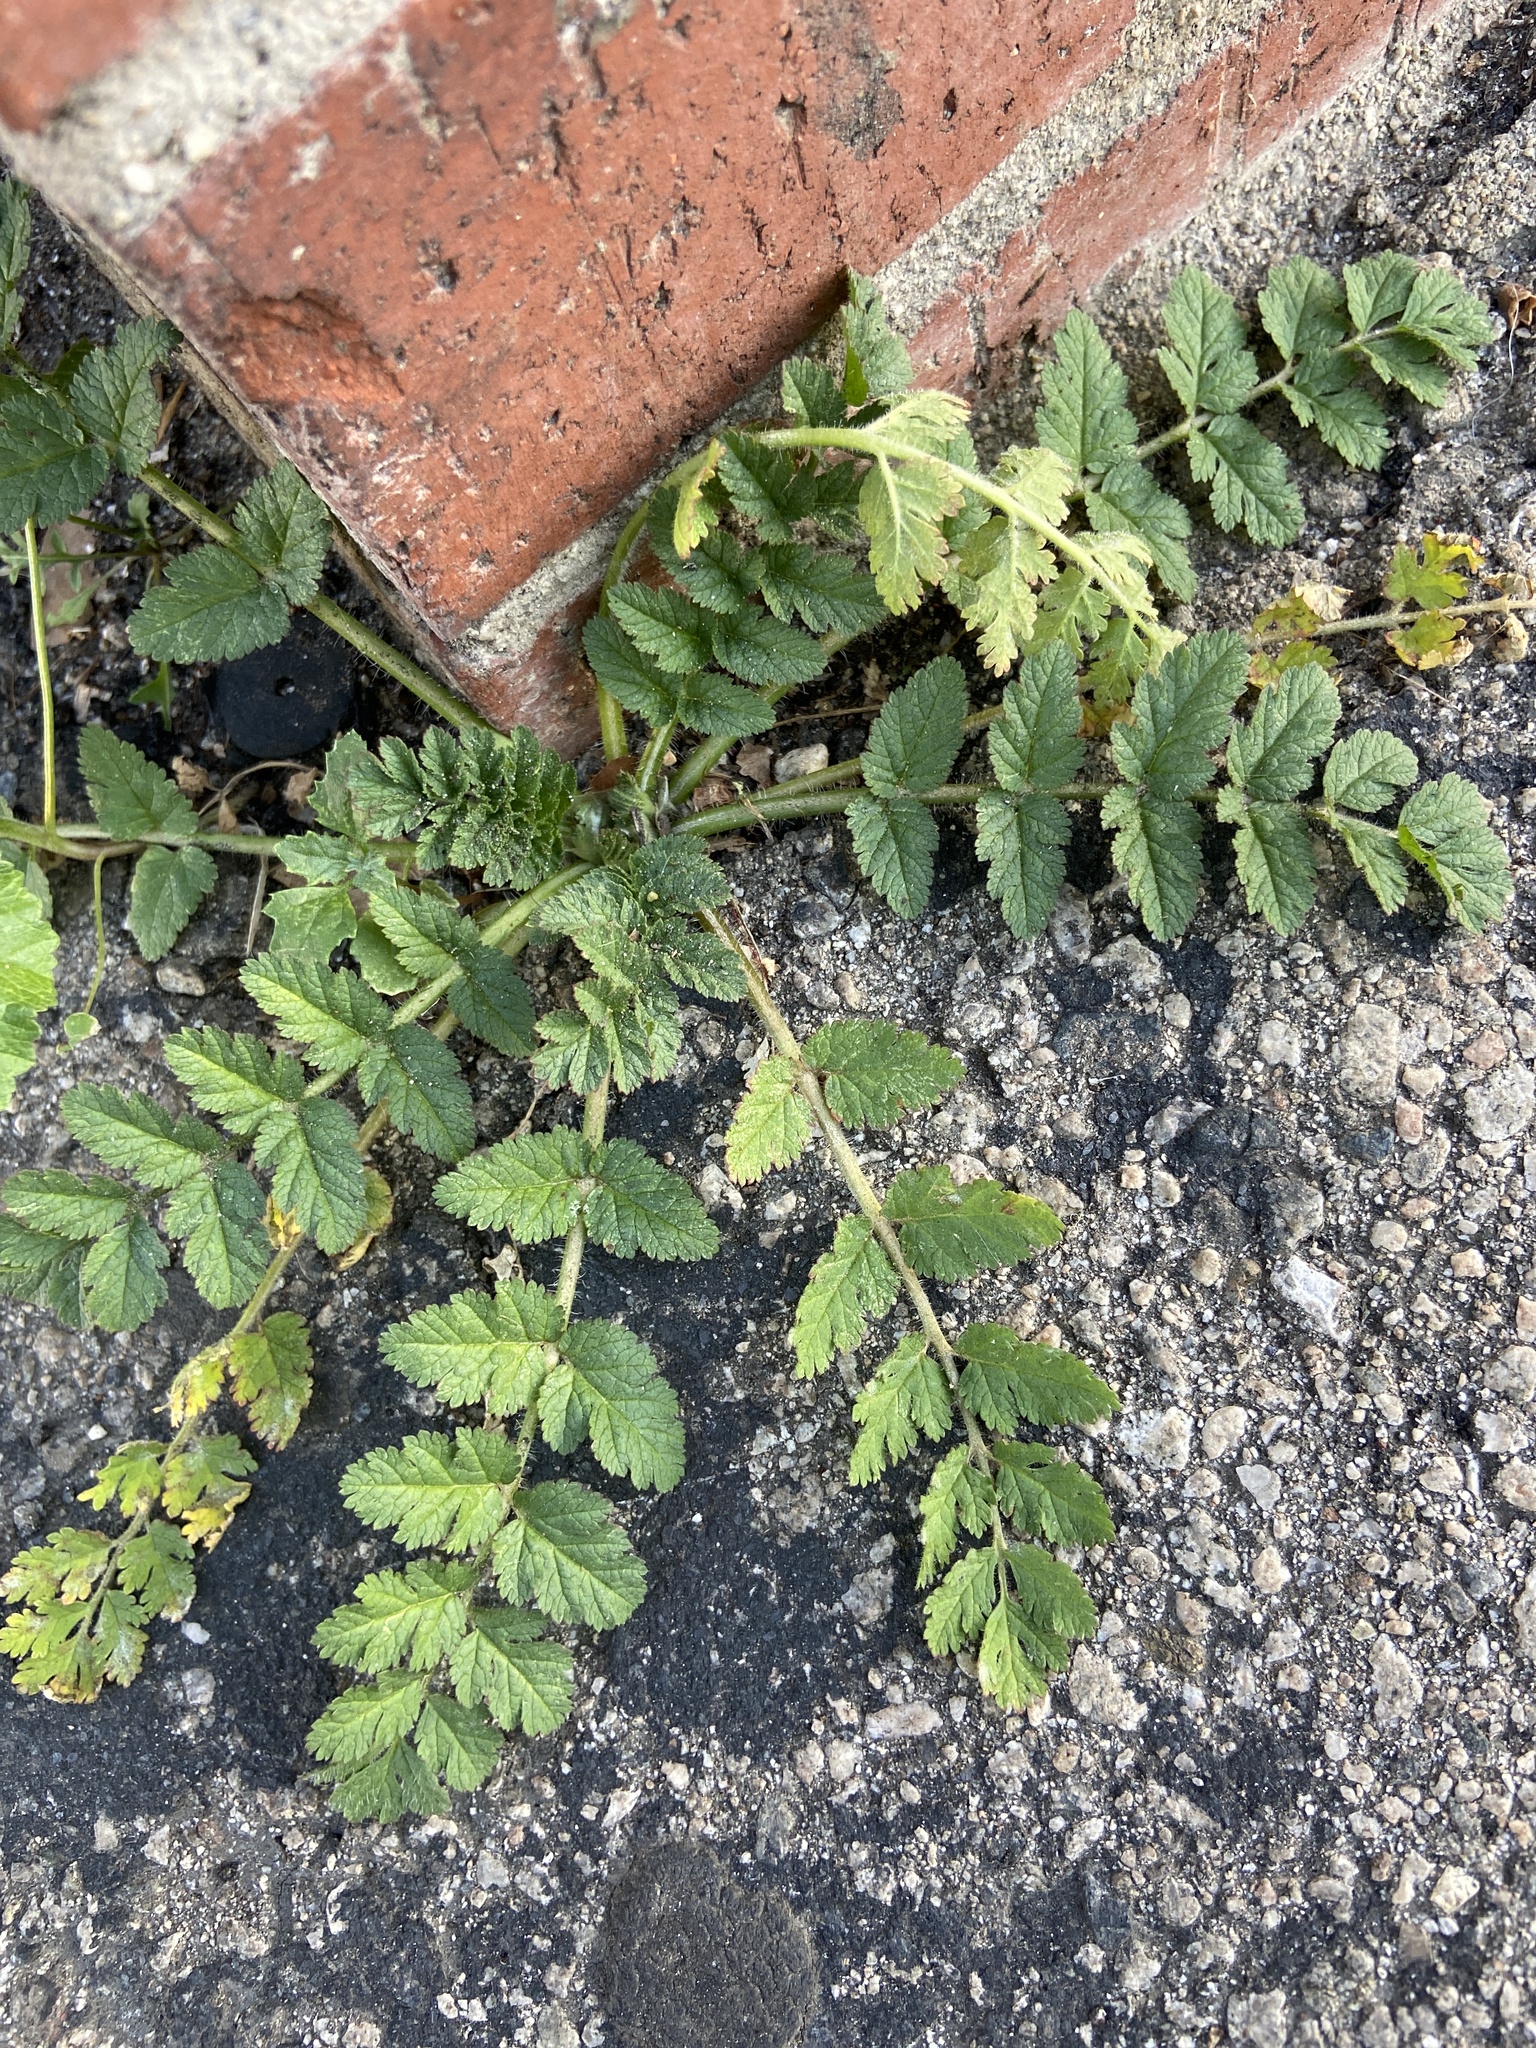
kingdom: Plantae
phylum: Tracheophyta
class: Magnoliopsida
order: Geraniales
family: Geraniaceae
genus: Erodium
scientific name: Erodium moschatum
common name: Musk stork's-bill
